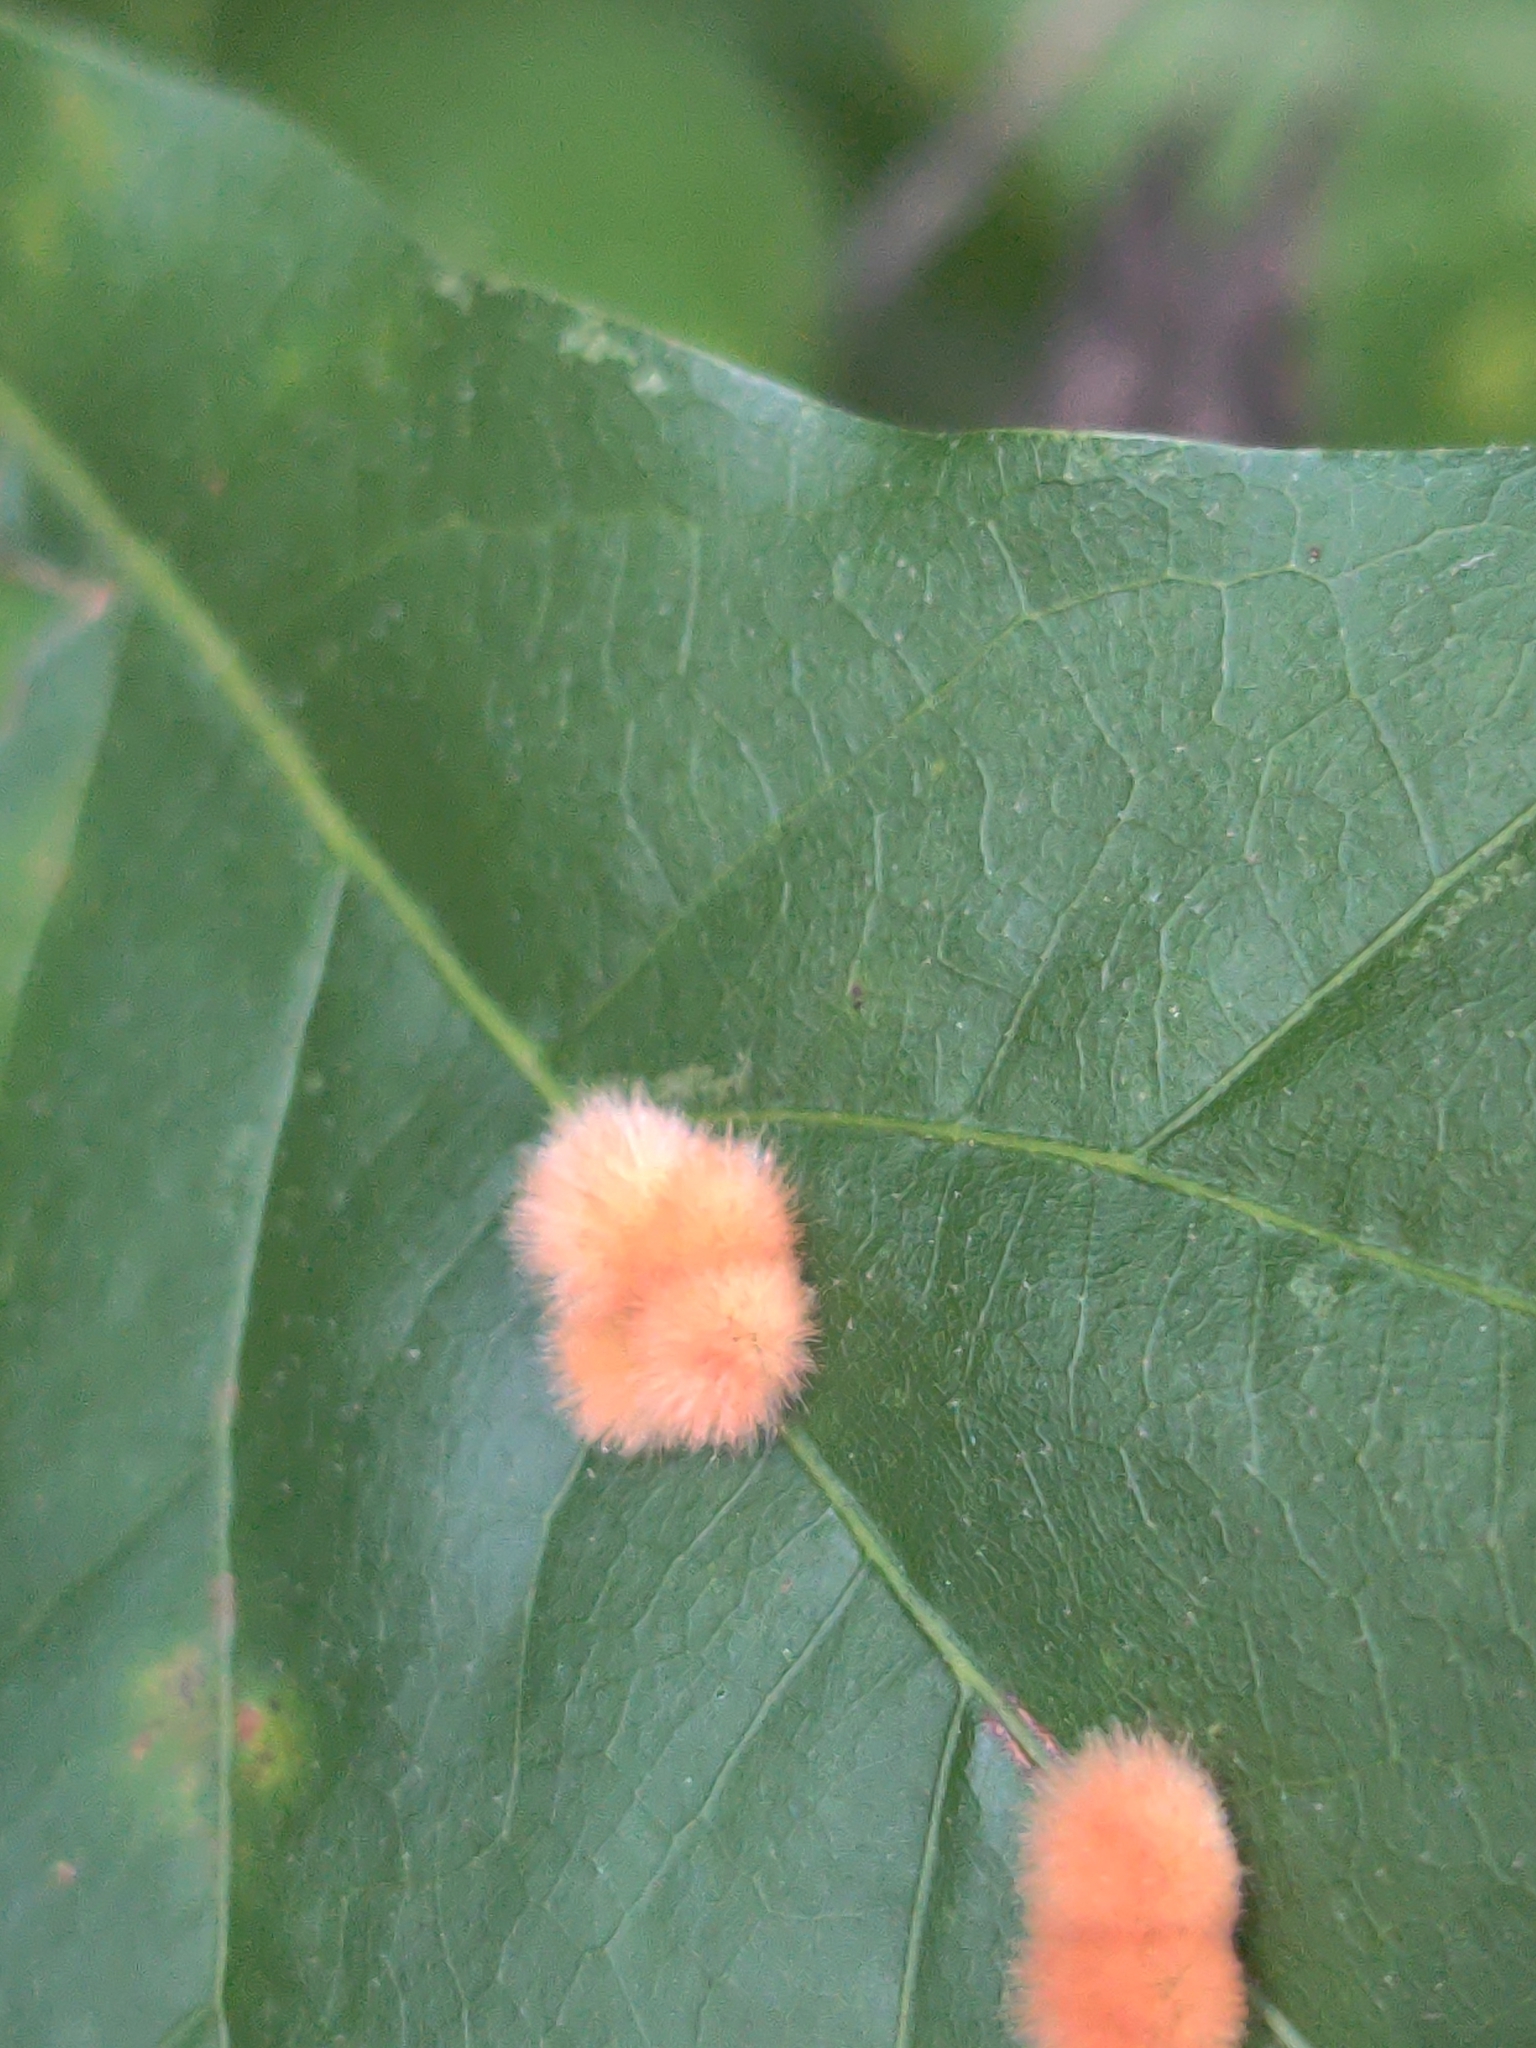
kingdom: Animalia
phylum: Arthropoda
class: Insecta
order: Hymenoptera
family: Cynipidae
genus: Callirhytis
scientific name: Callirhytis
